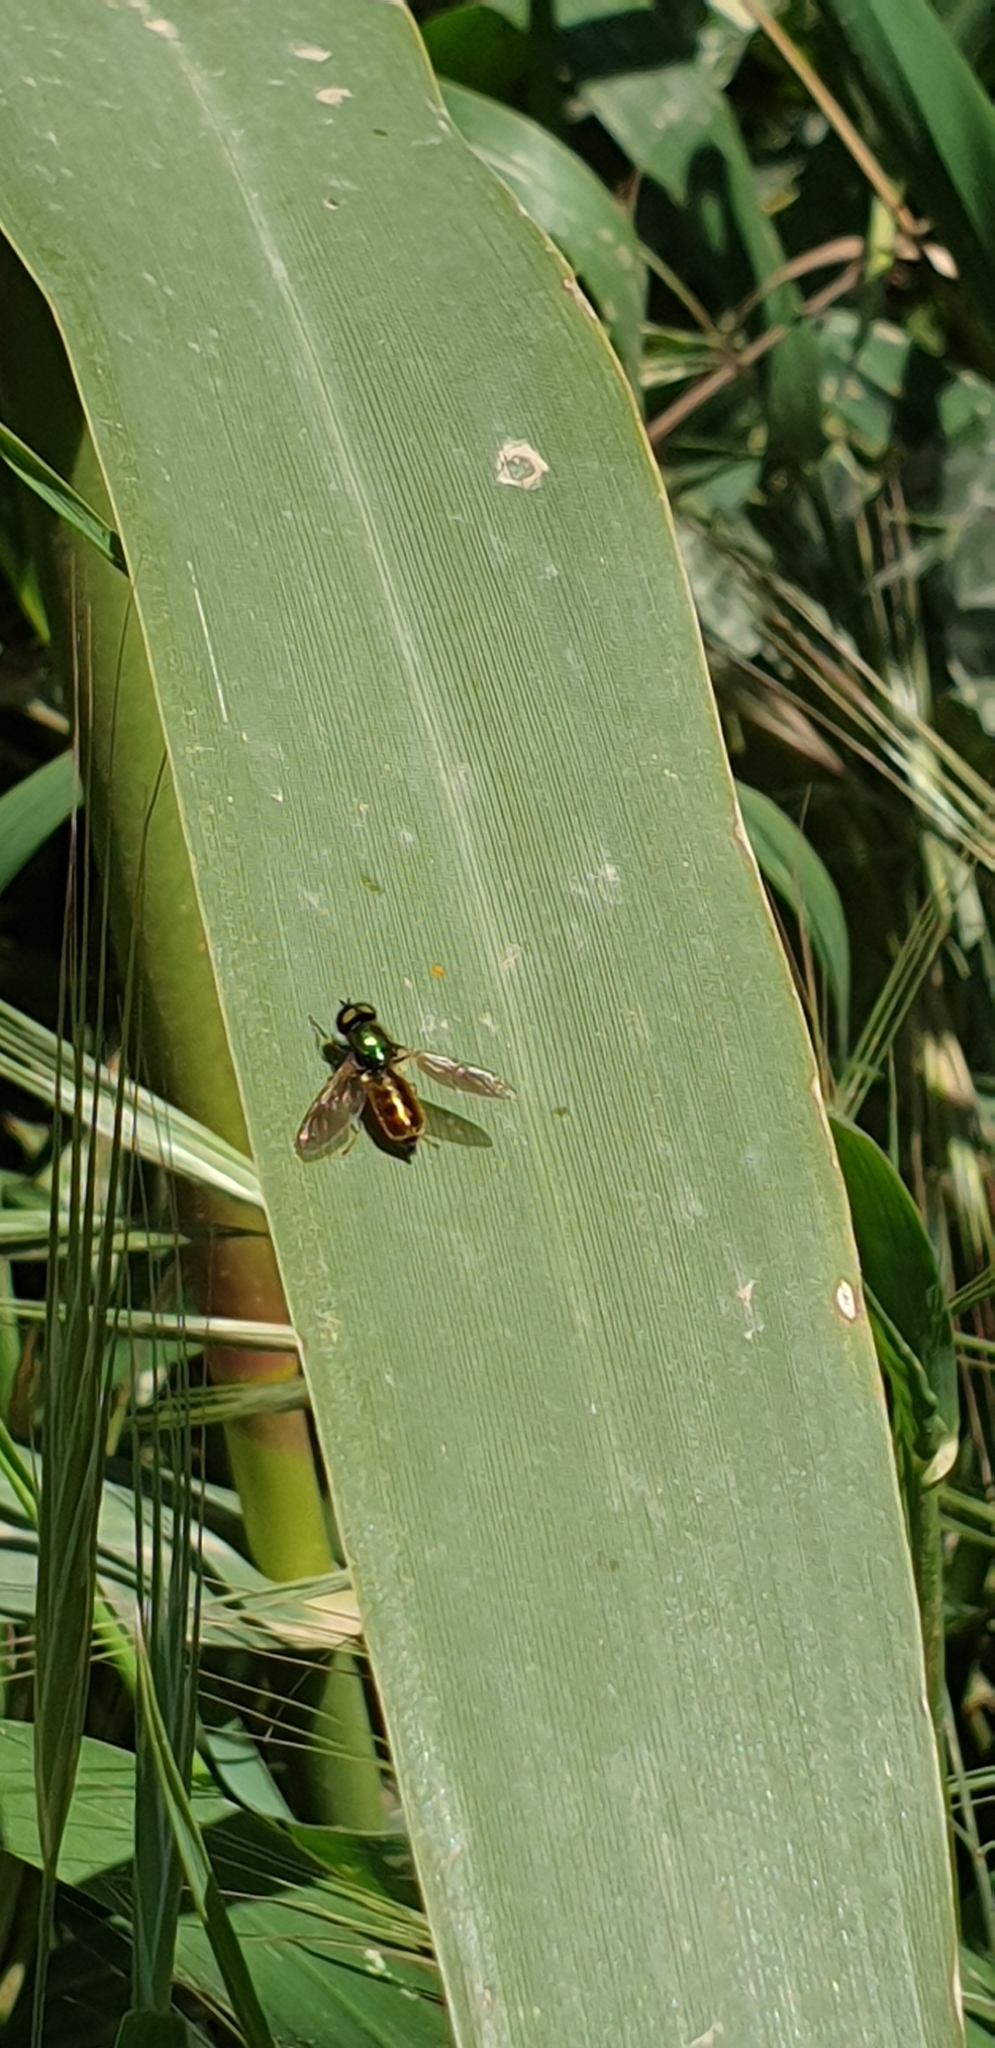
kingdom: Animalia
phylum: Arthropoda
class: Insecta
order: Diptera
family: Stratiomyidae
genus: Chloromyia
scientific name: Chloromyia formosa
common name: Soldier fly
